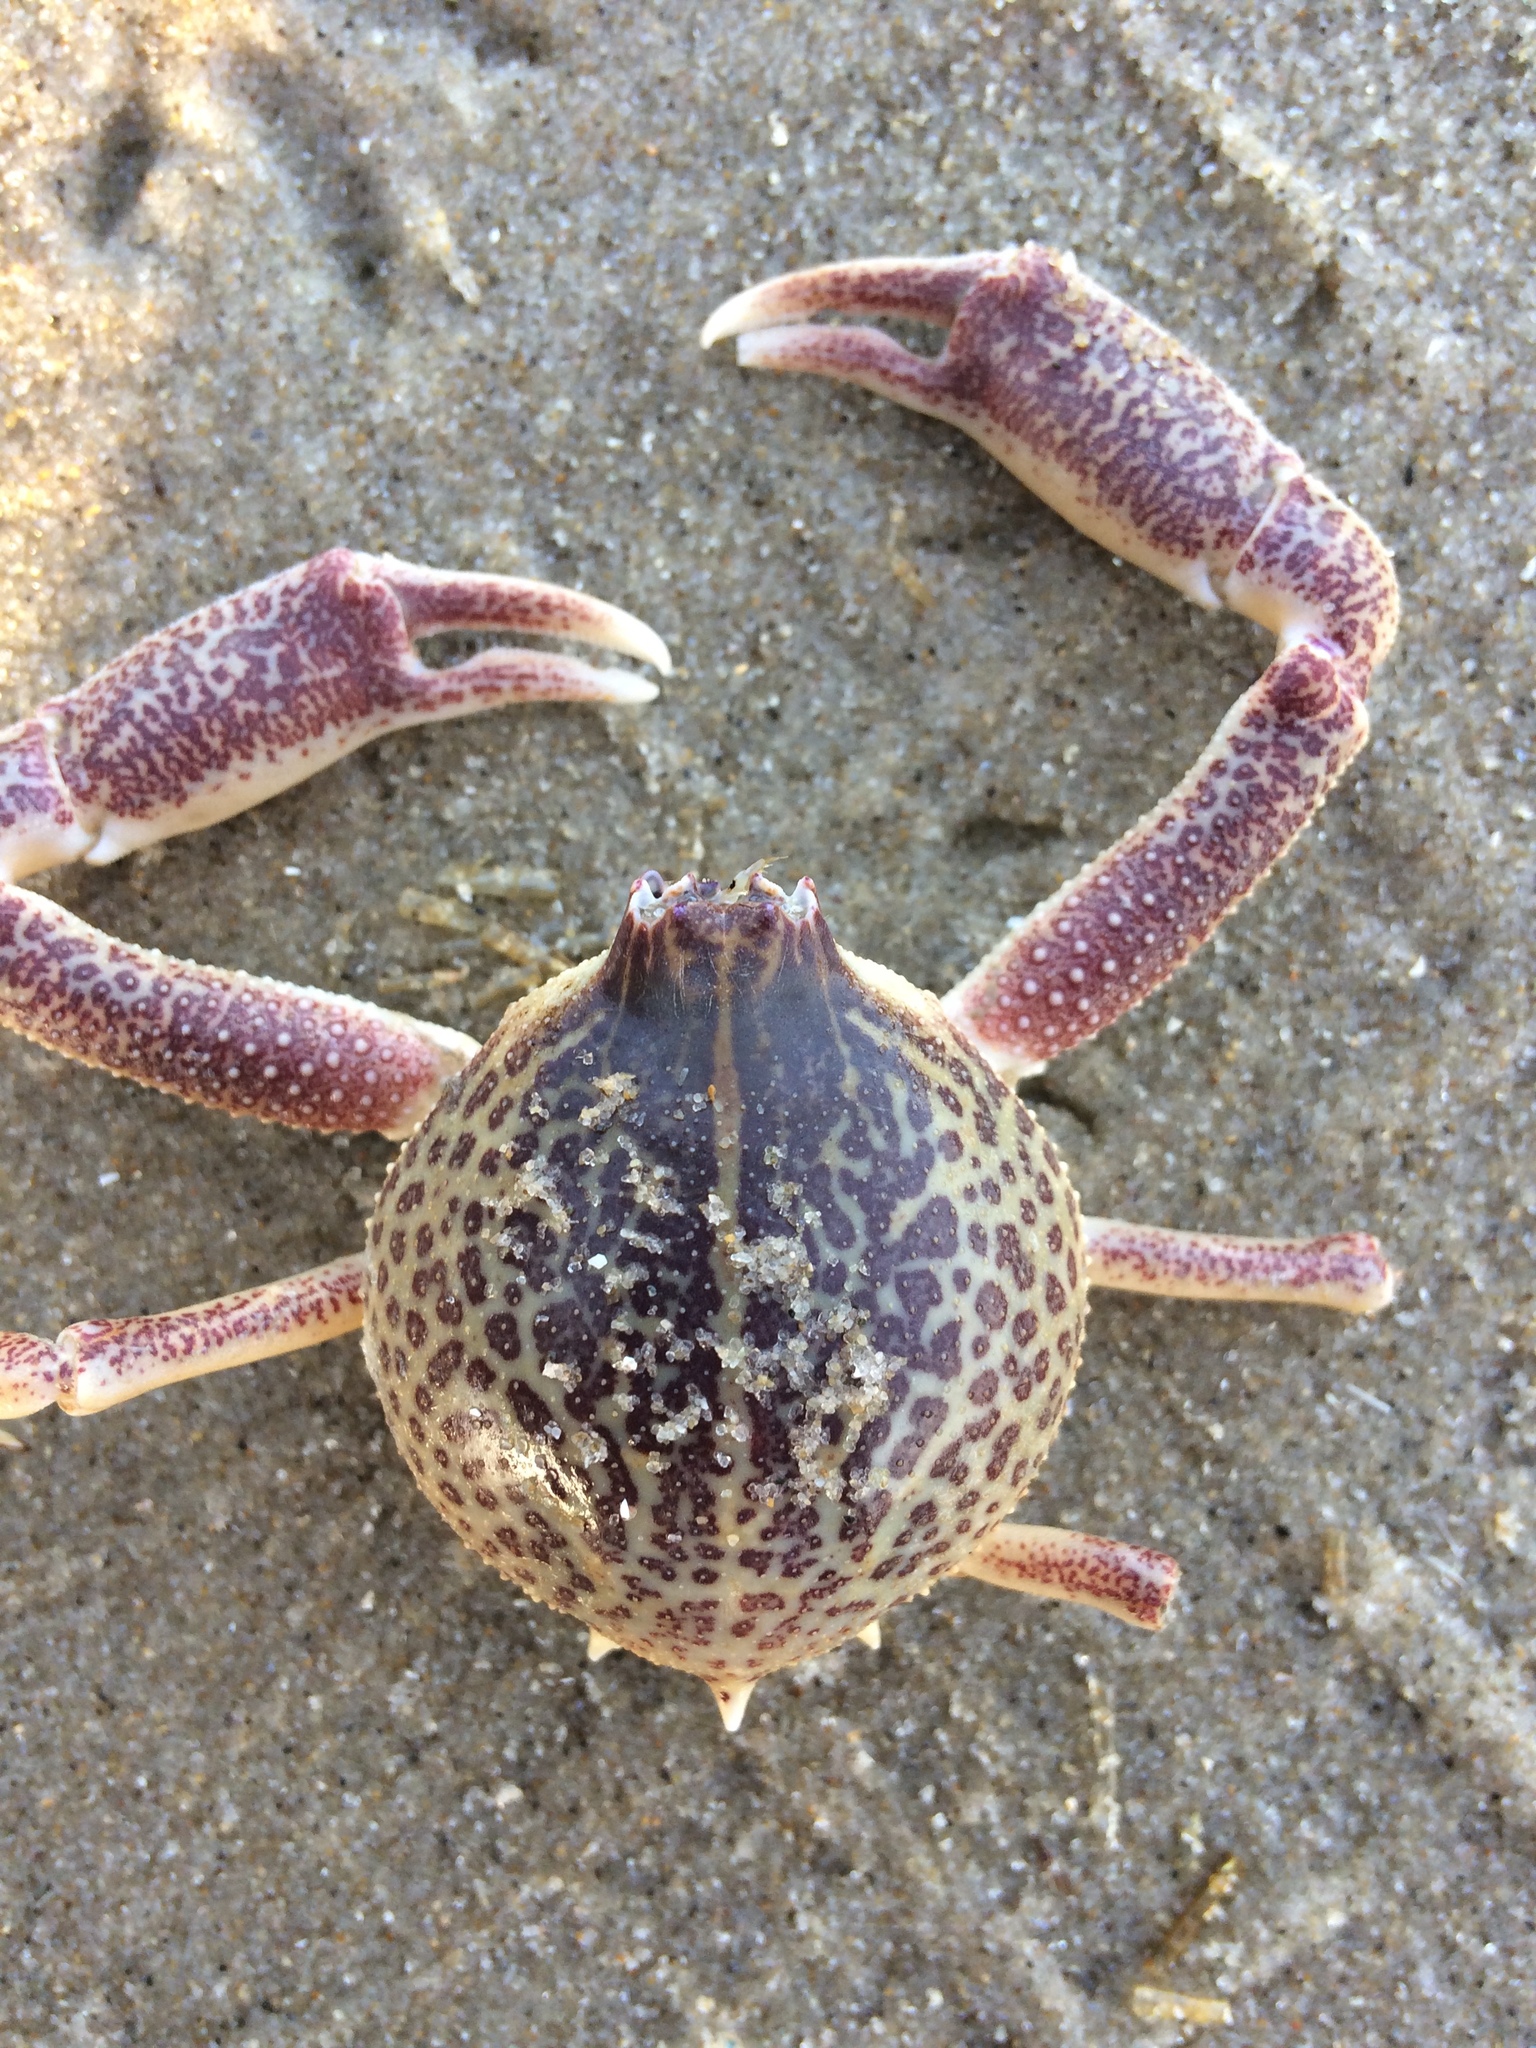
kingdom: Animalia
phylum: Arthropoda
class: Malacostraca
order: Decapoda
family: Leucosiidae
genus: Persephona
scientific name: Persephona aquilonaris
